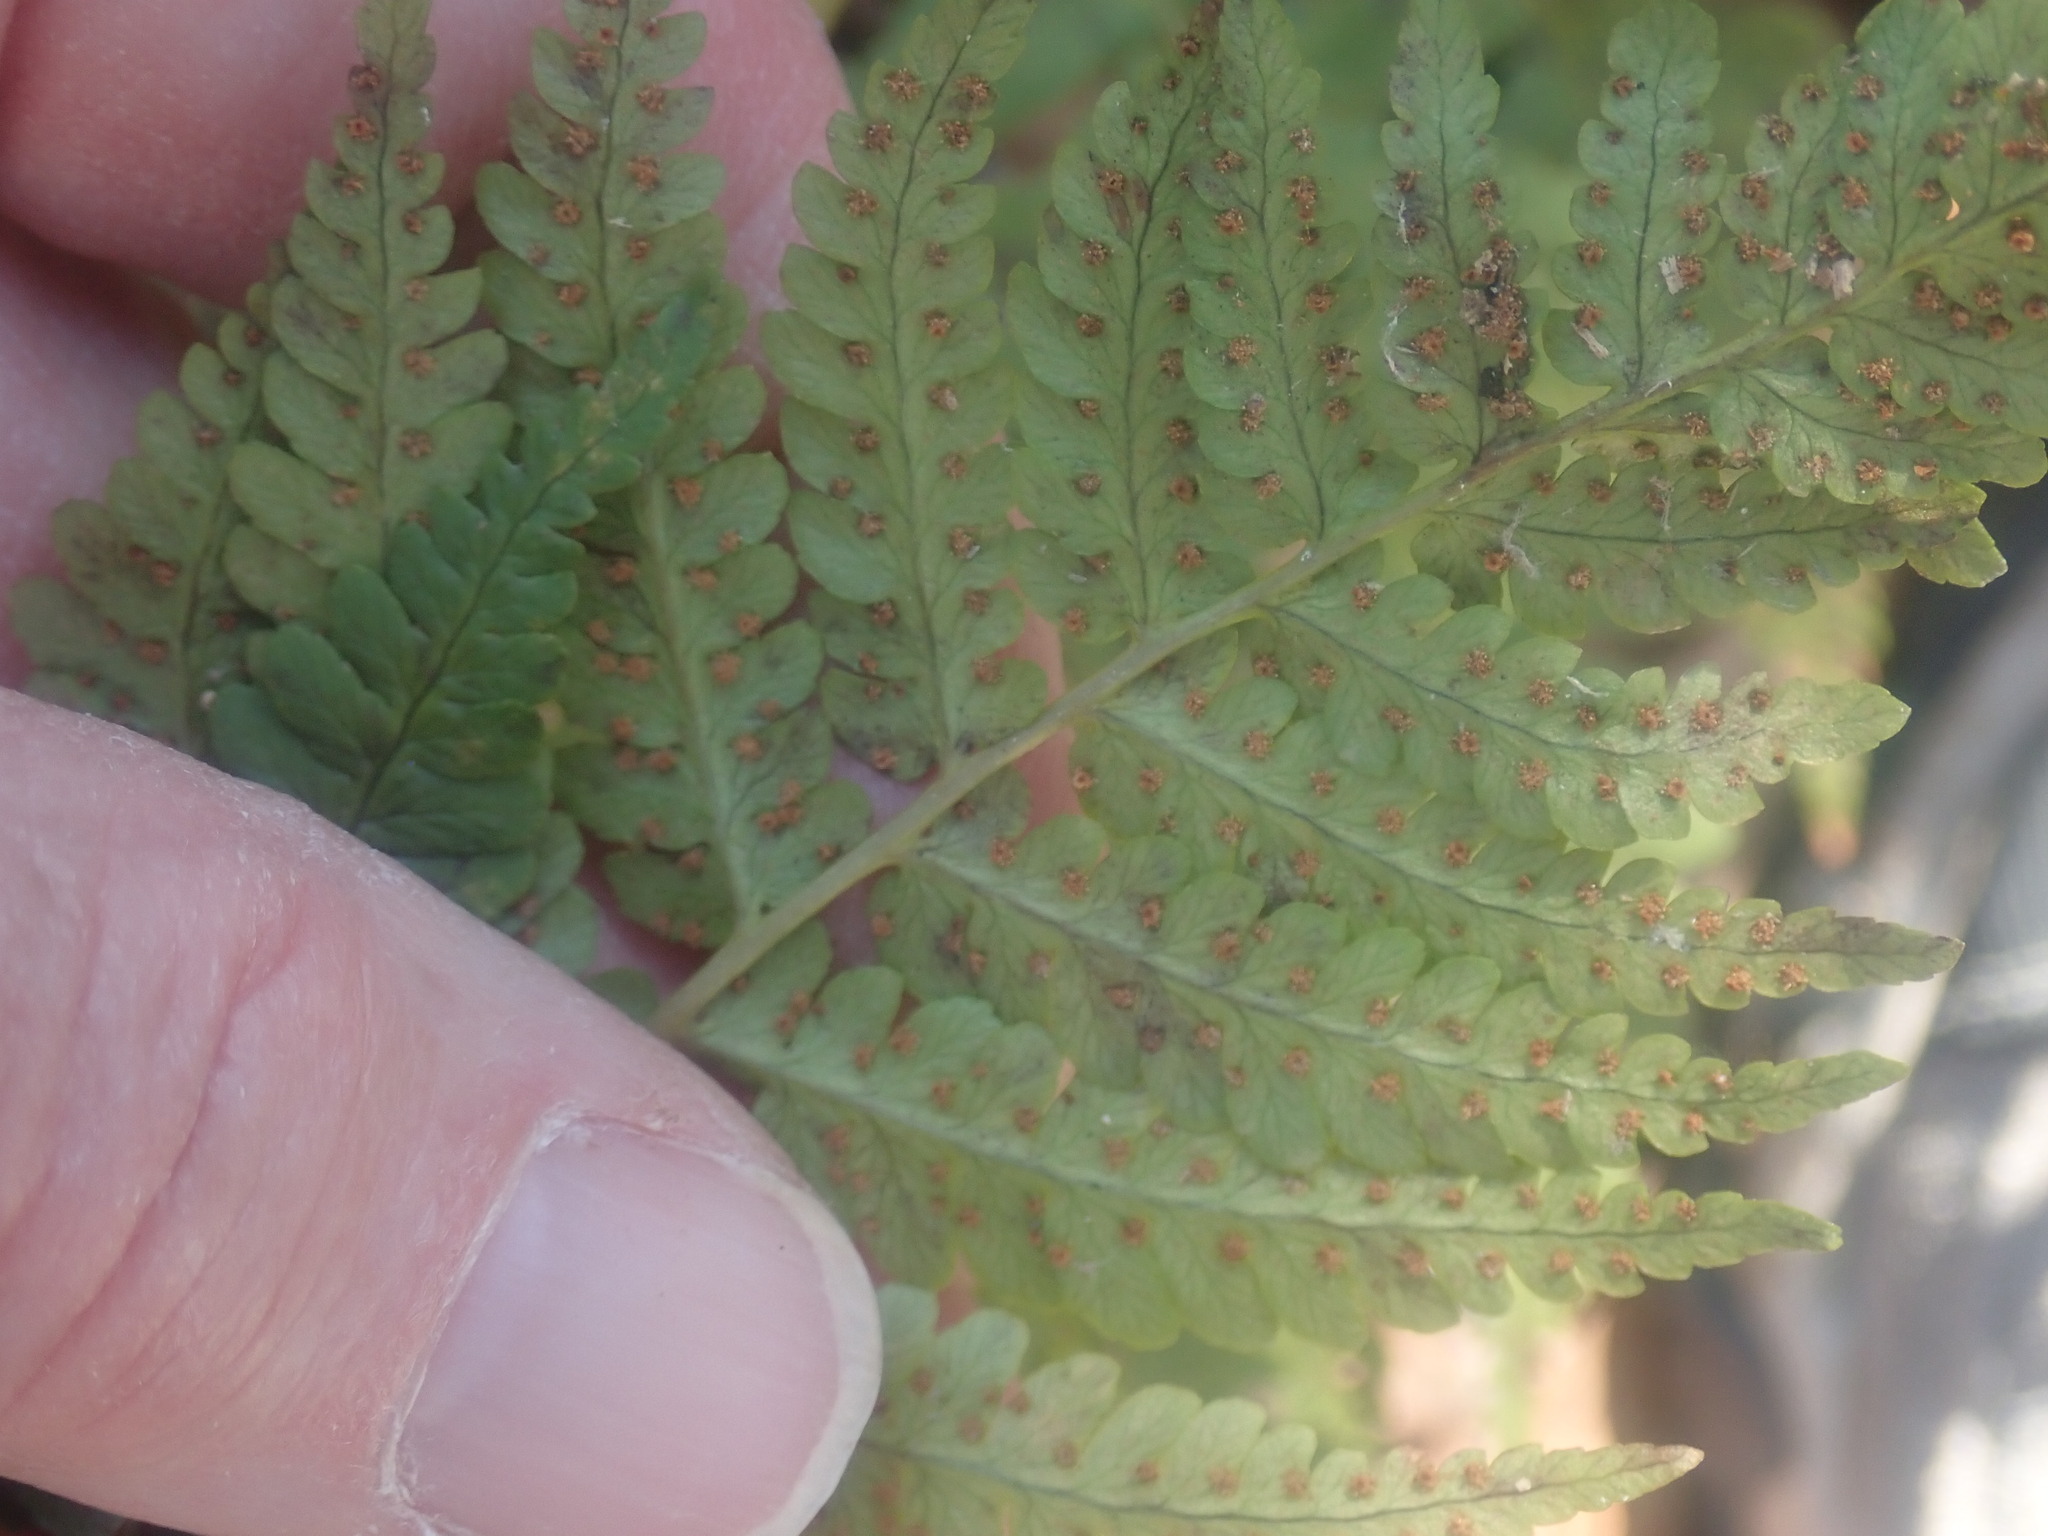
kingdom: Plantae
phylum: Tracheophyta
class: Polypodiopsida
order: Polypodiales
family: Dryopteridaceae
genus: Dryopteris
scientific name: Dryopteris marginalis
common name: Marginal wood fern
